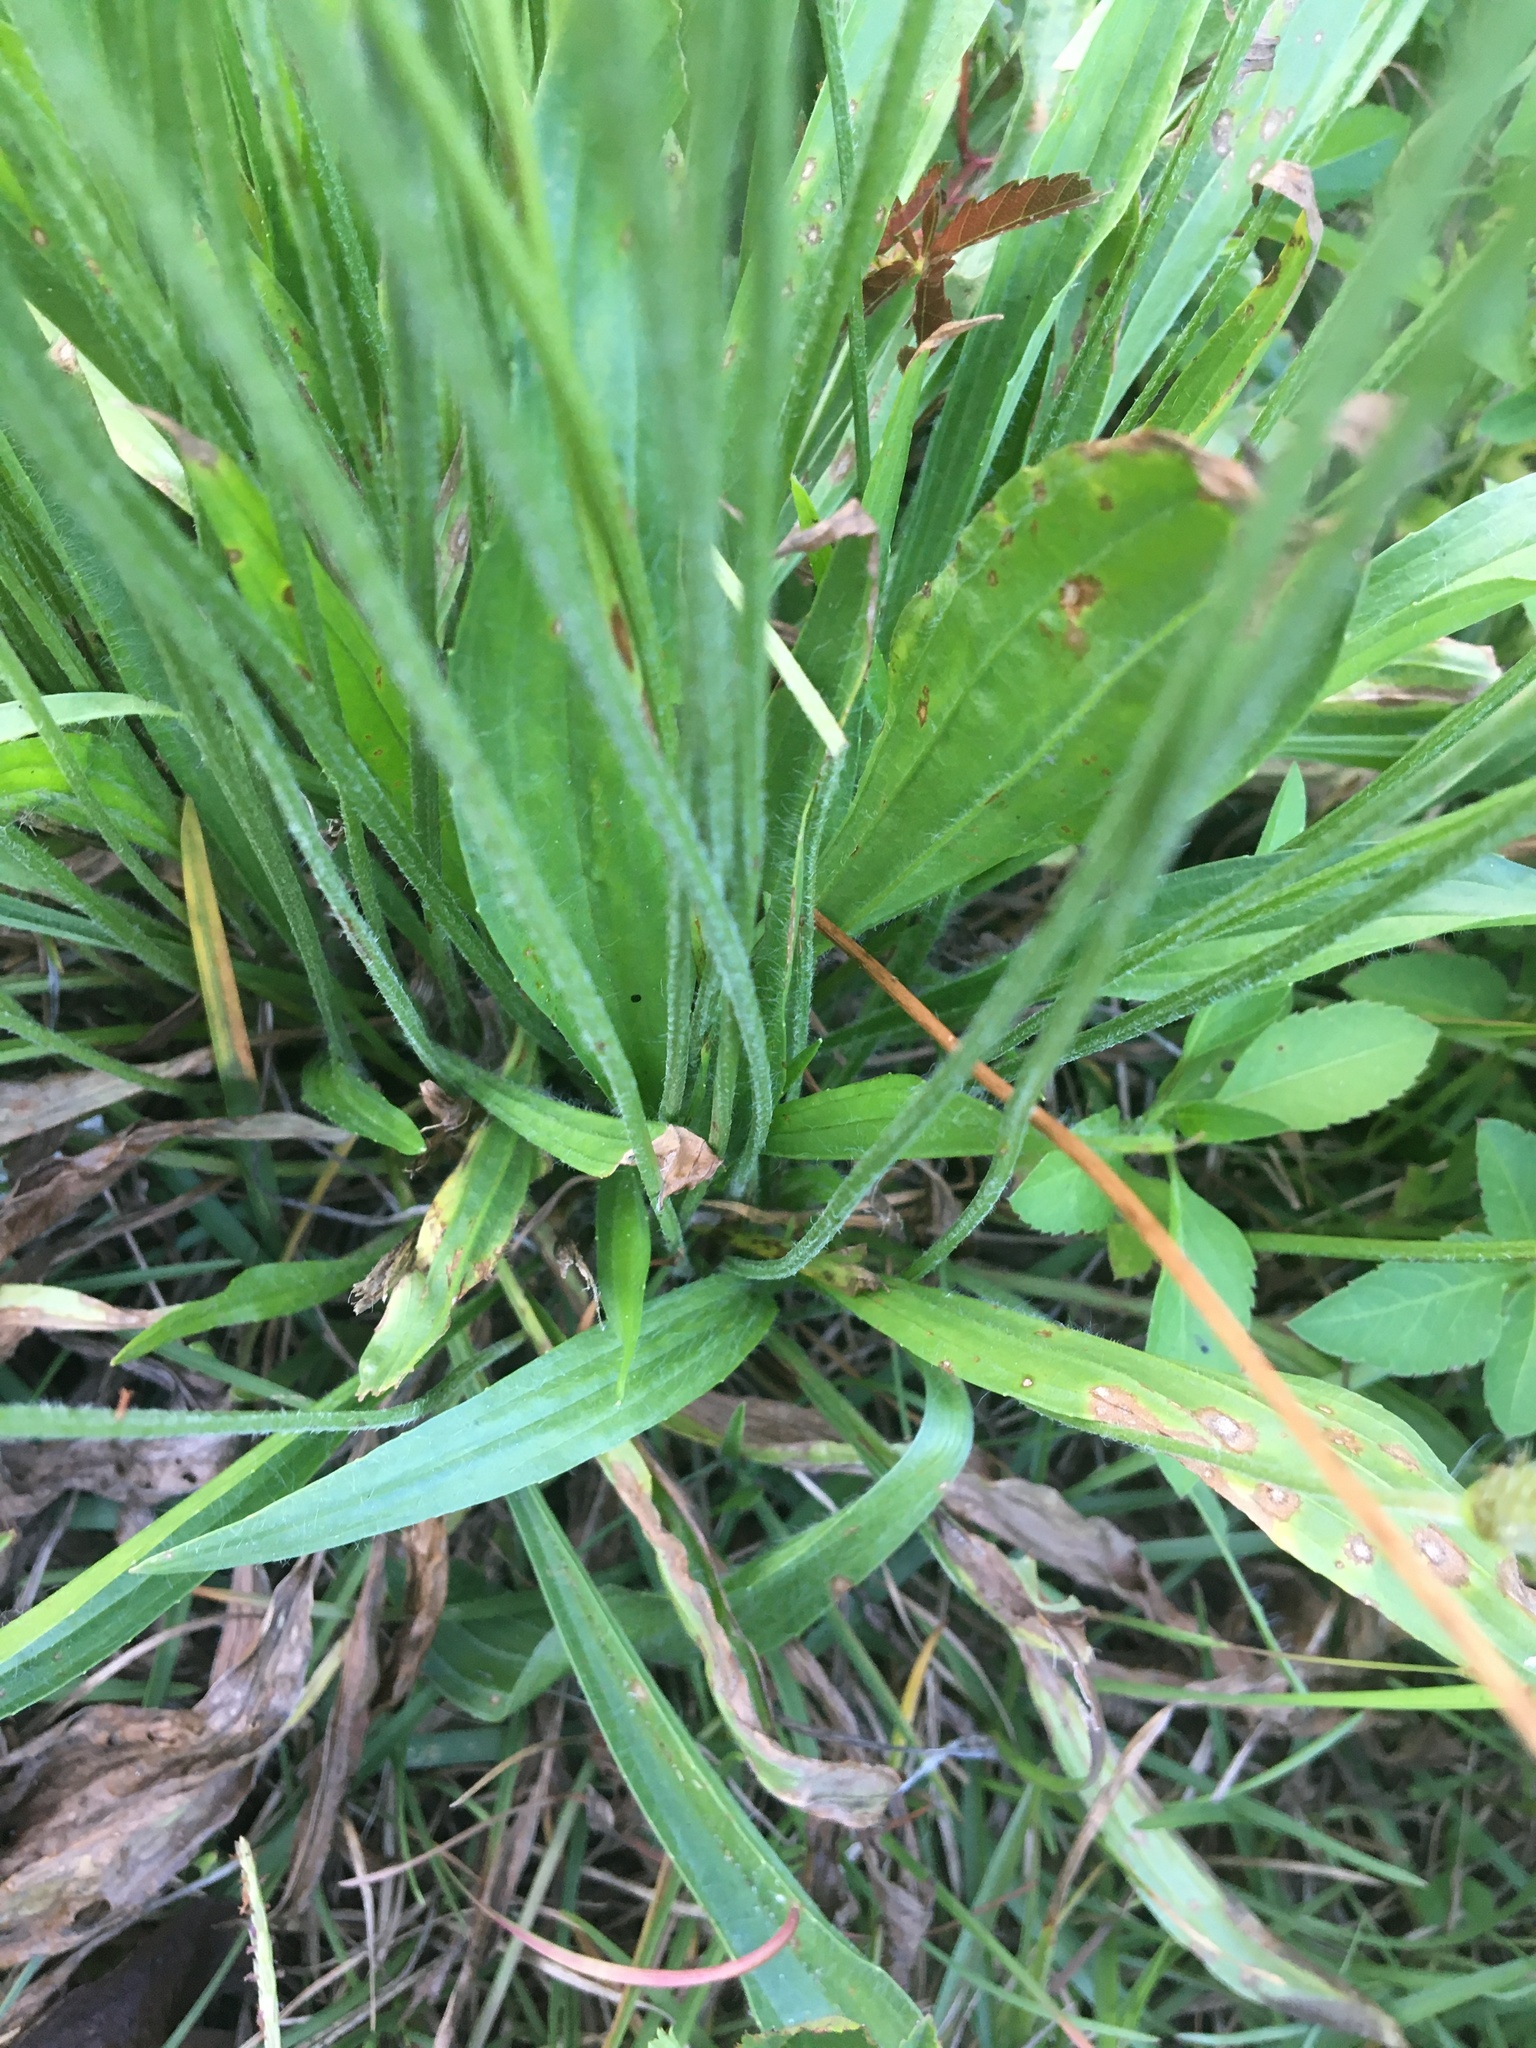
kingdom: Plantae
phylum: Tracheophyta
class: Magnoliopsida
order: Lamiales
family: Plantaginaceae
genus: Plantago
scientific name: Plantago lanceolata
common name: Ribwort plantain
